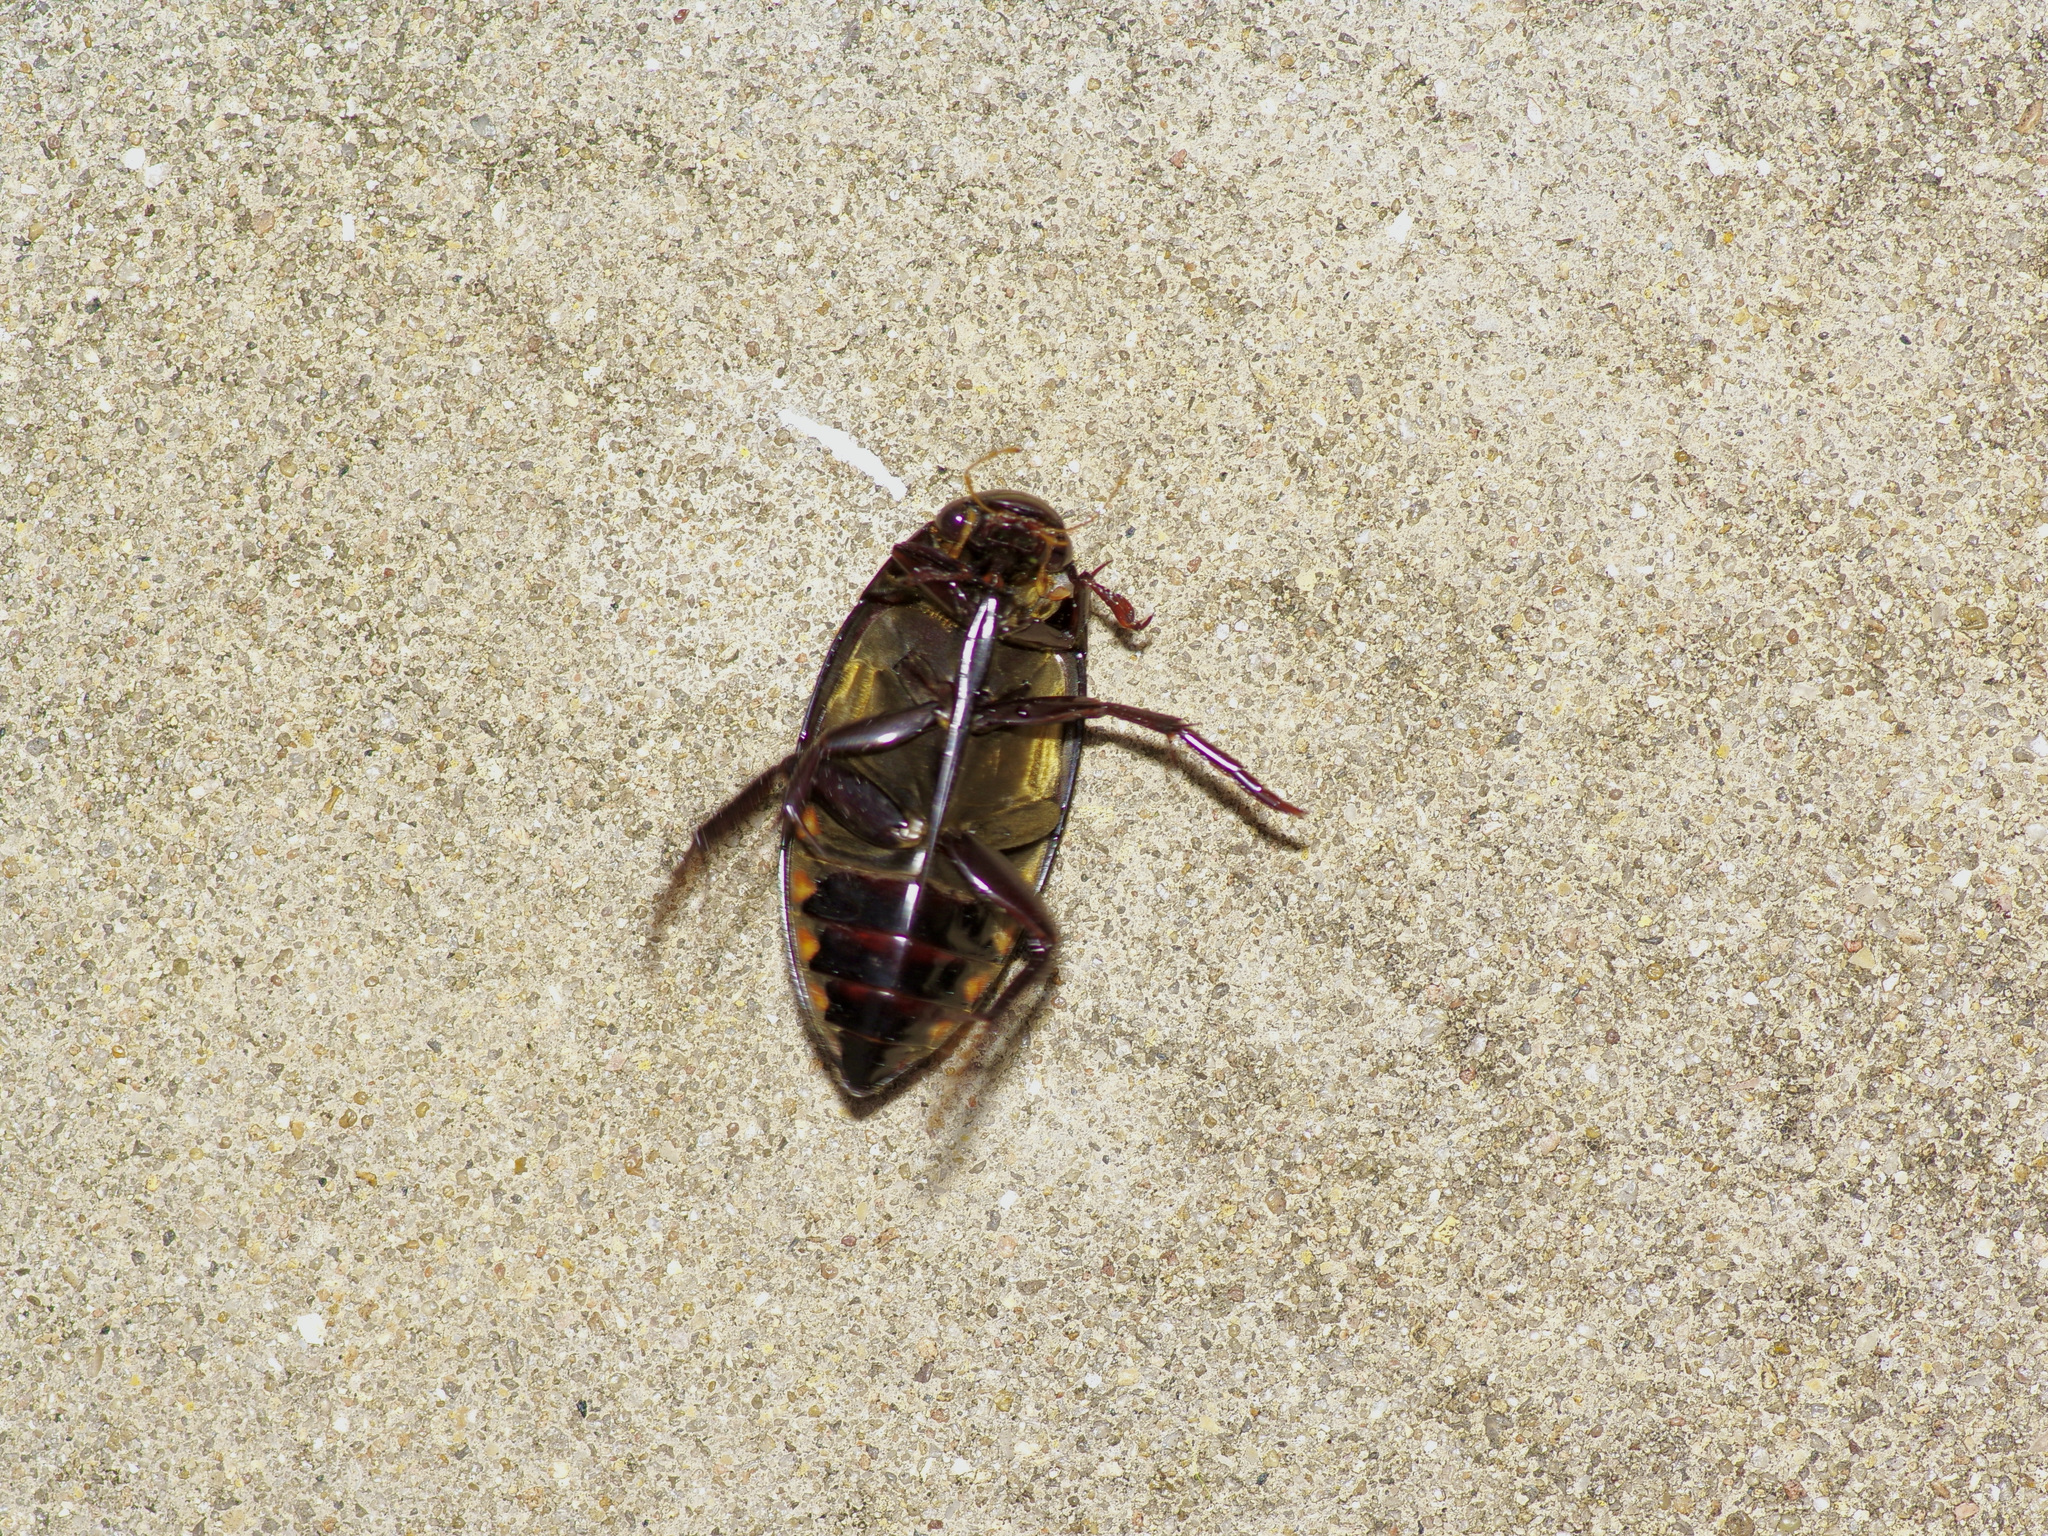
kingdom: Animalia
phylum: Arthropoda
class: Insecta
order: Coleoptera
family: Hydrophilidae
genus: Hydrophilus
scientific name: Hydrophilus triangularis
